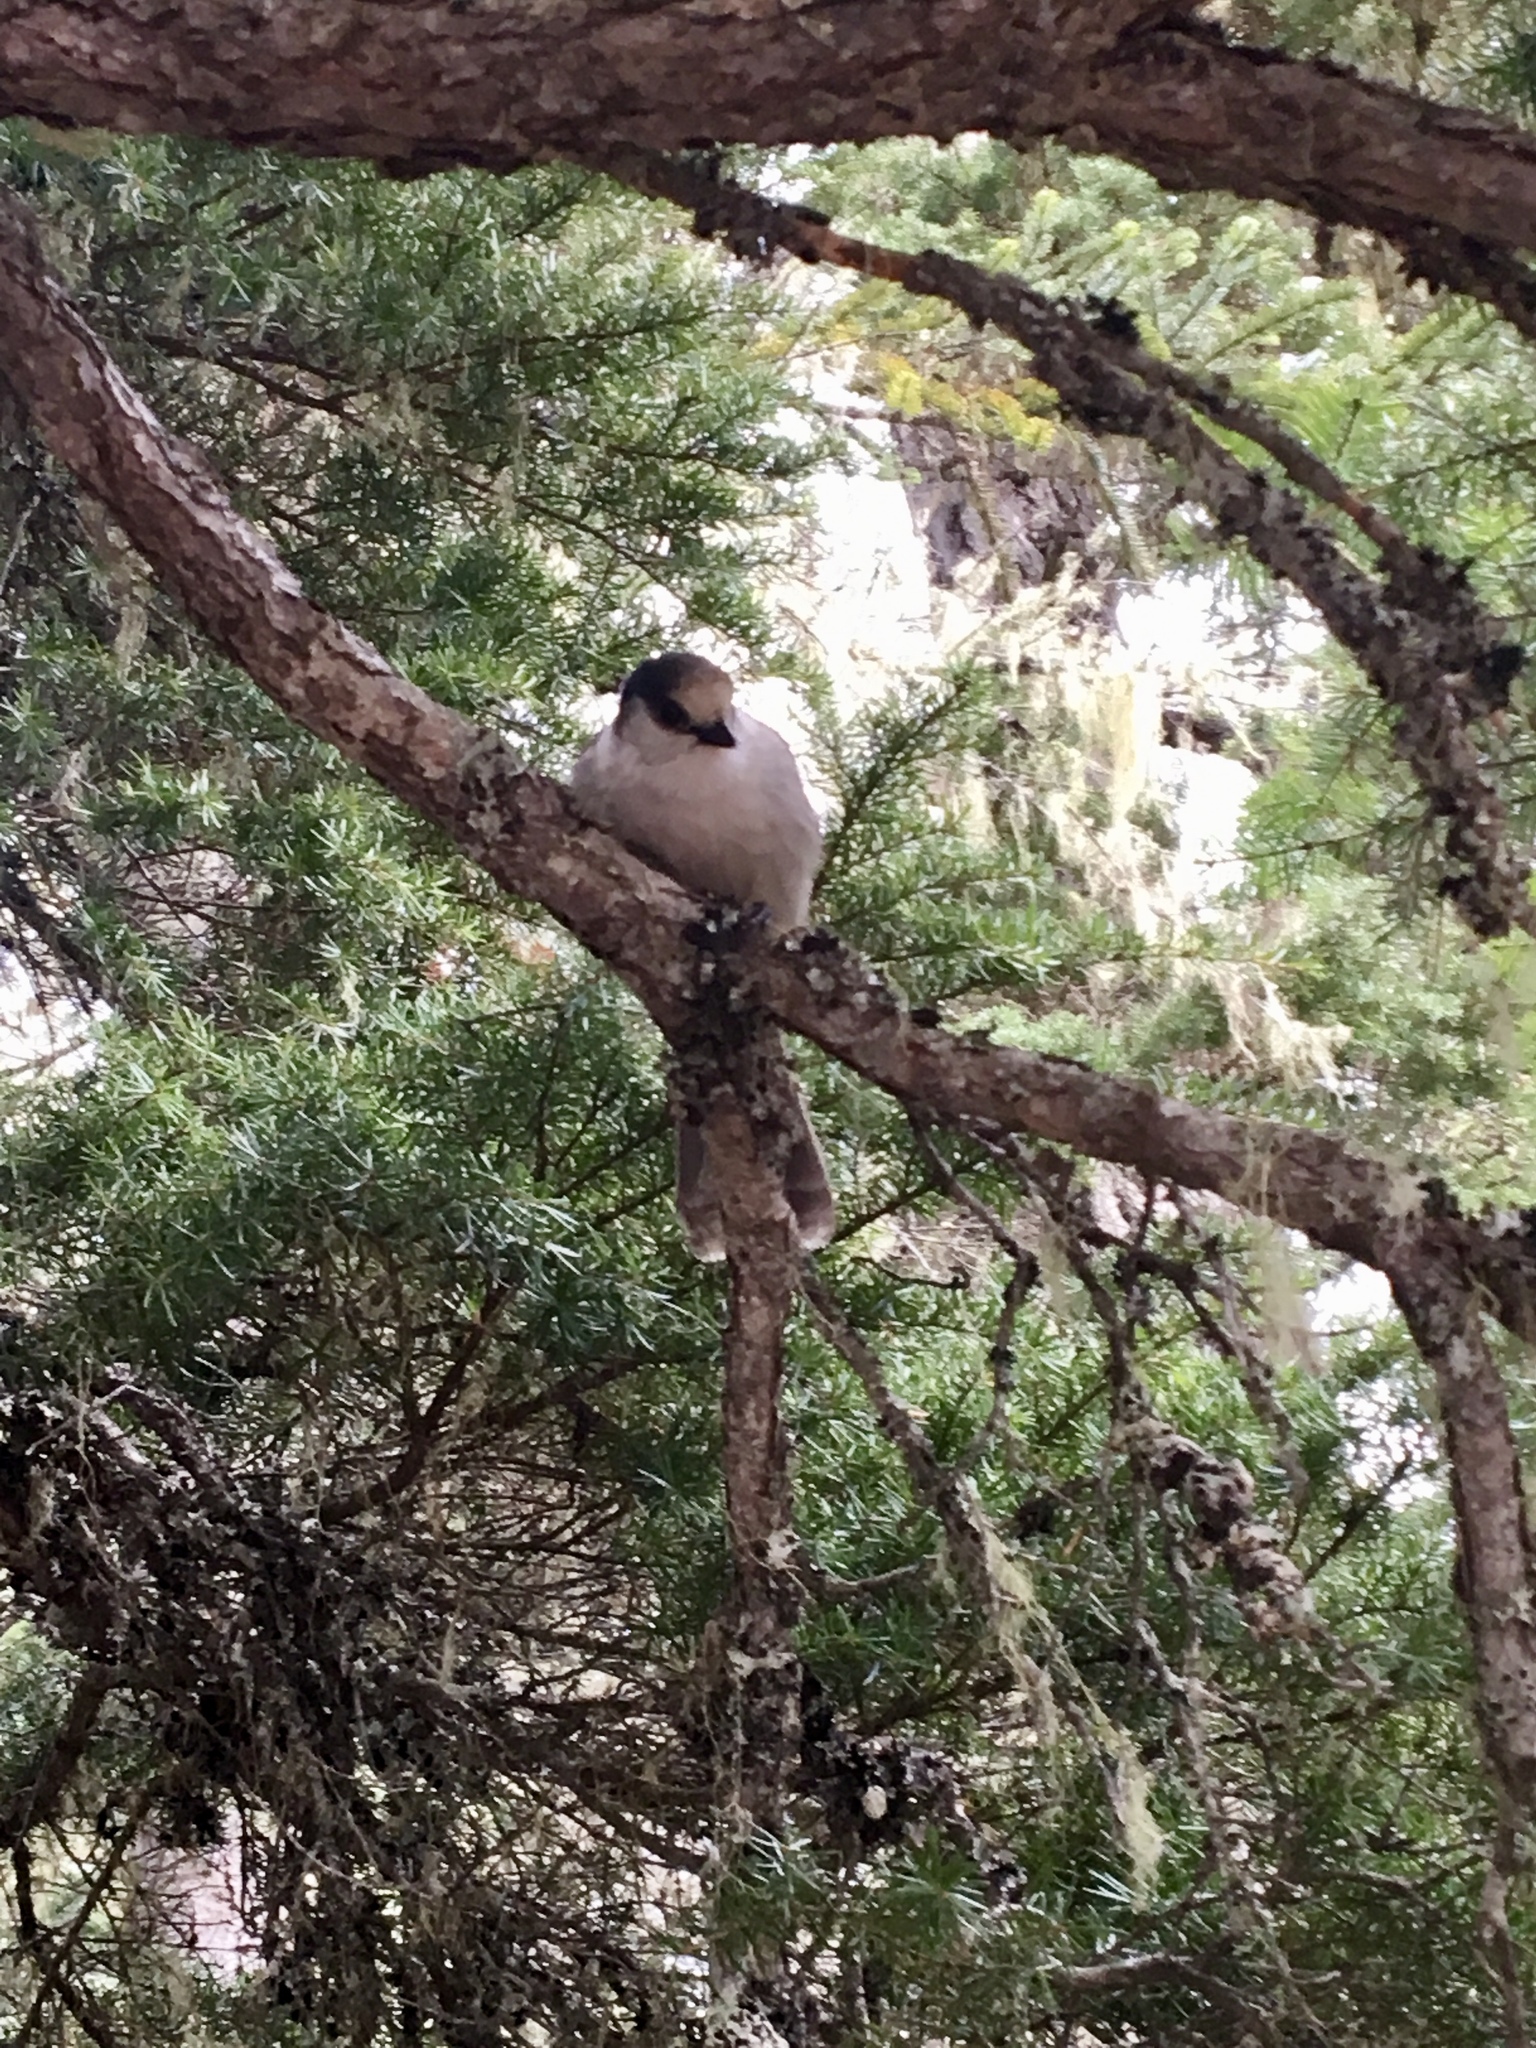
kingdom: Animalia
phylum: Chordata
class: Aves
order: Passeriformes
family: Corvidae
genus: Perisoreus
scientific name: Perisoreus canadensis
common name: Gray jay
